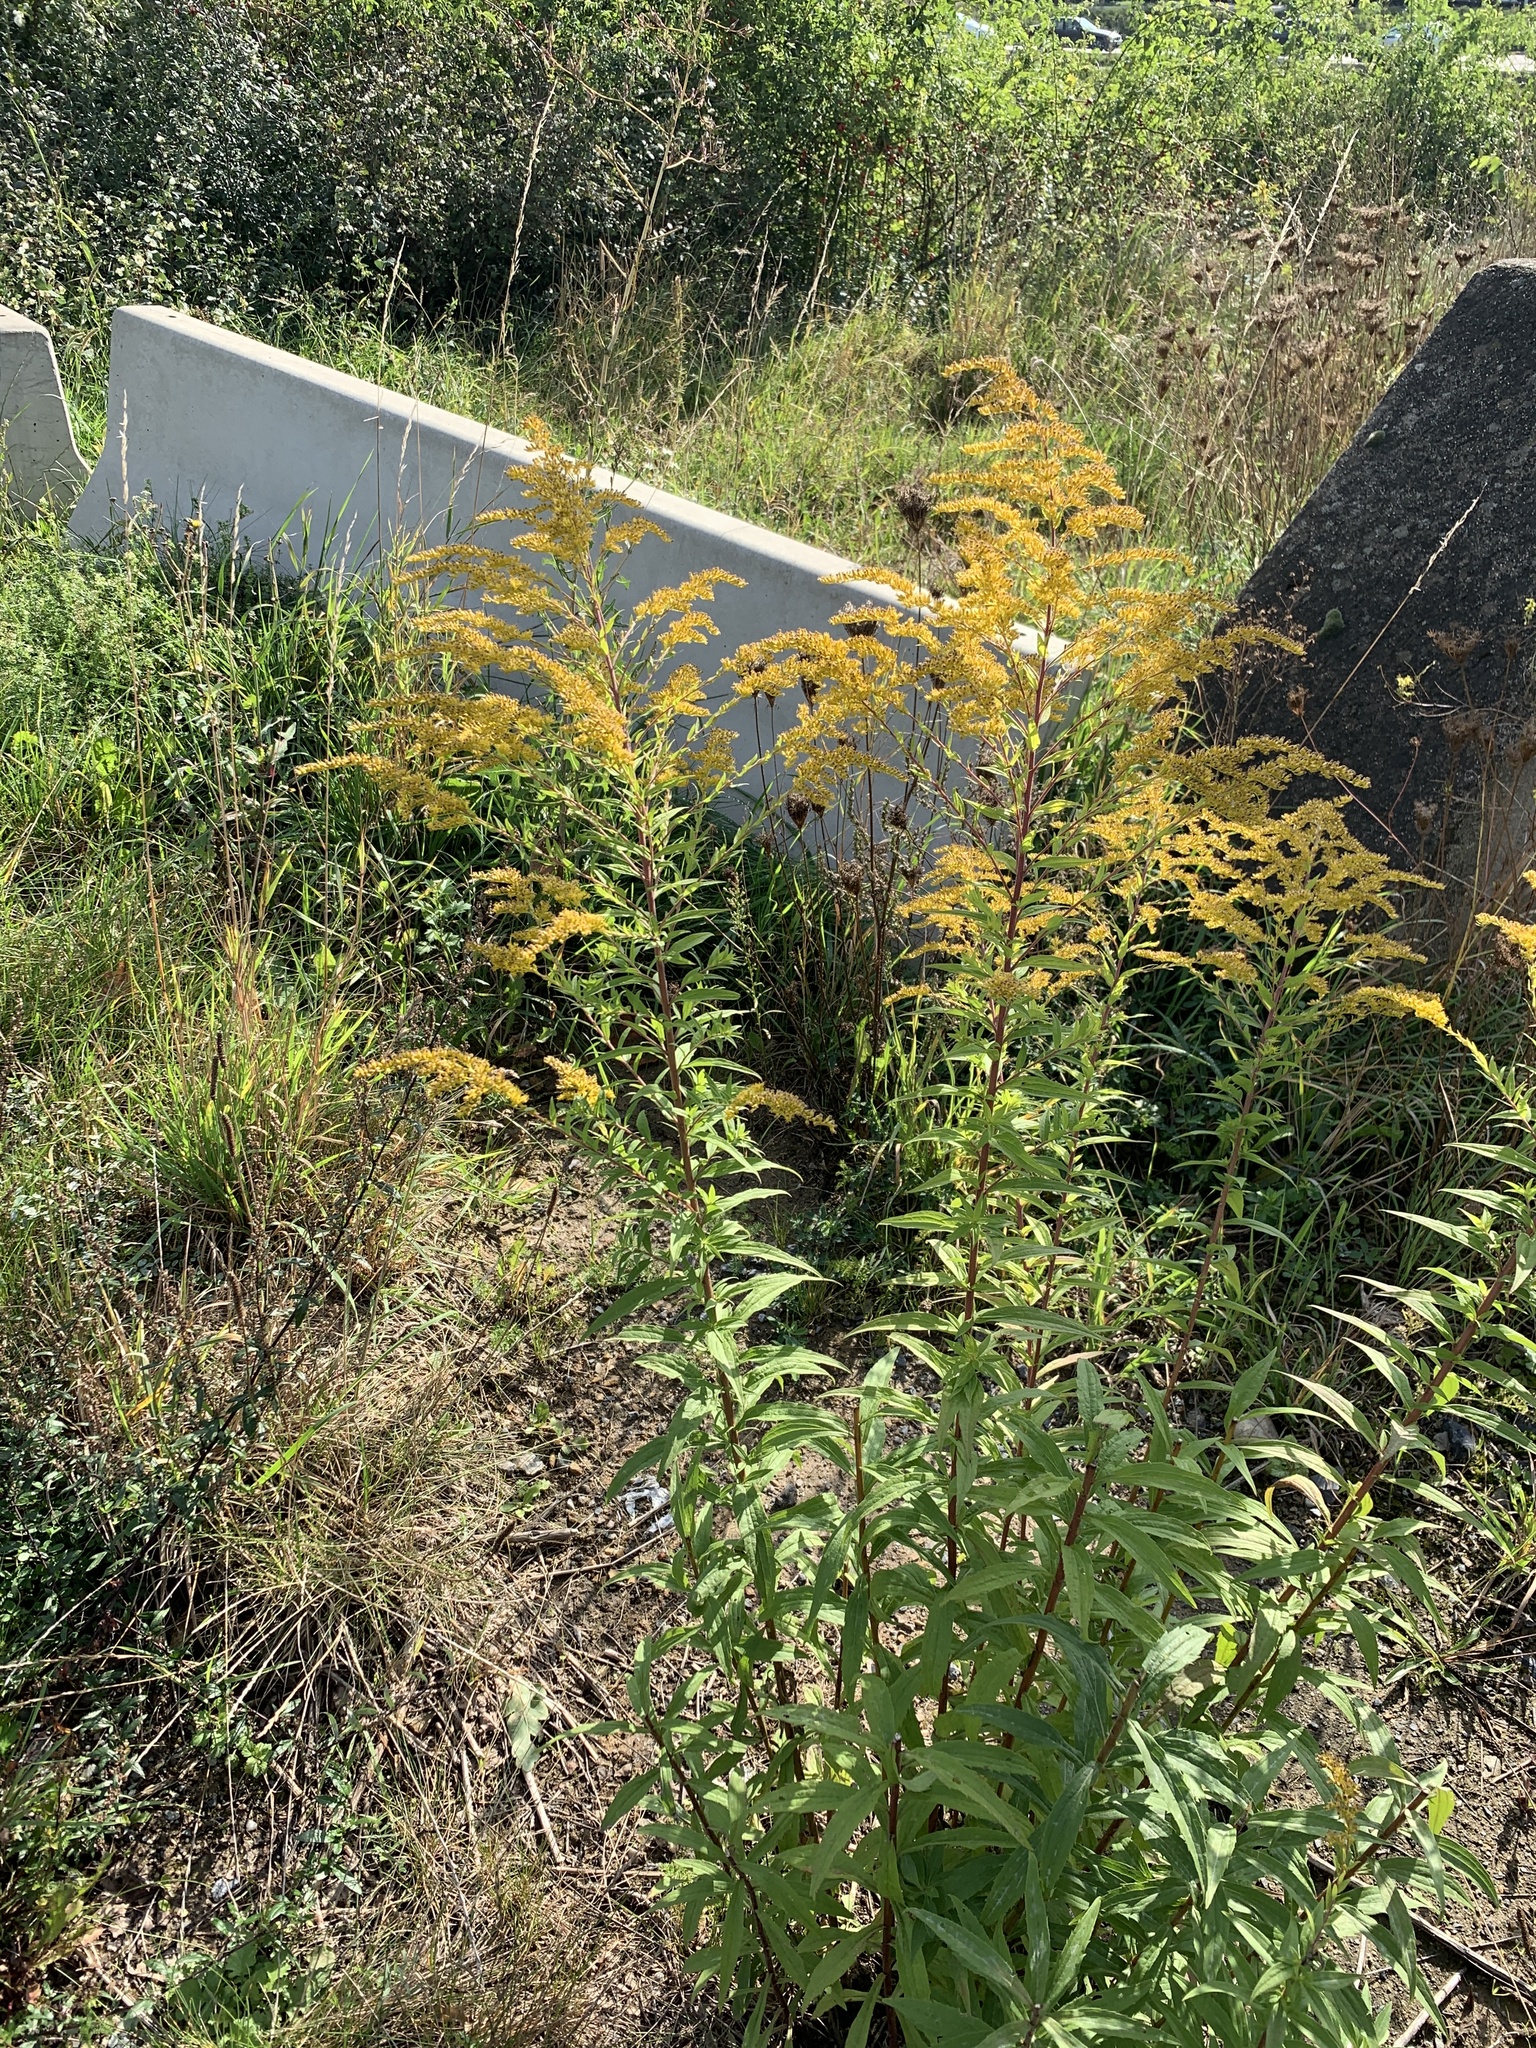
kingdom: Plantae
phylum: Tracheophyta
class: Magnoliopsida
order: Asterales
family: Asteraceae
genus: Solidago
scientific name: Solidago canadensis
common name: Canada goldenrod
